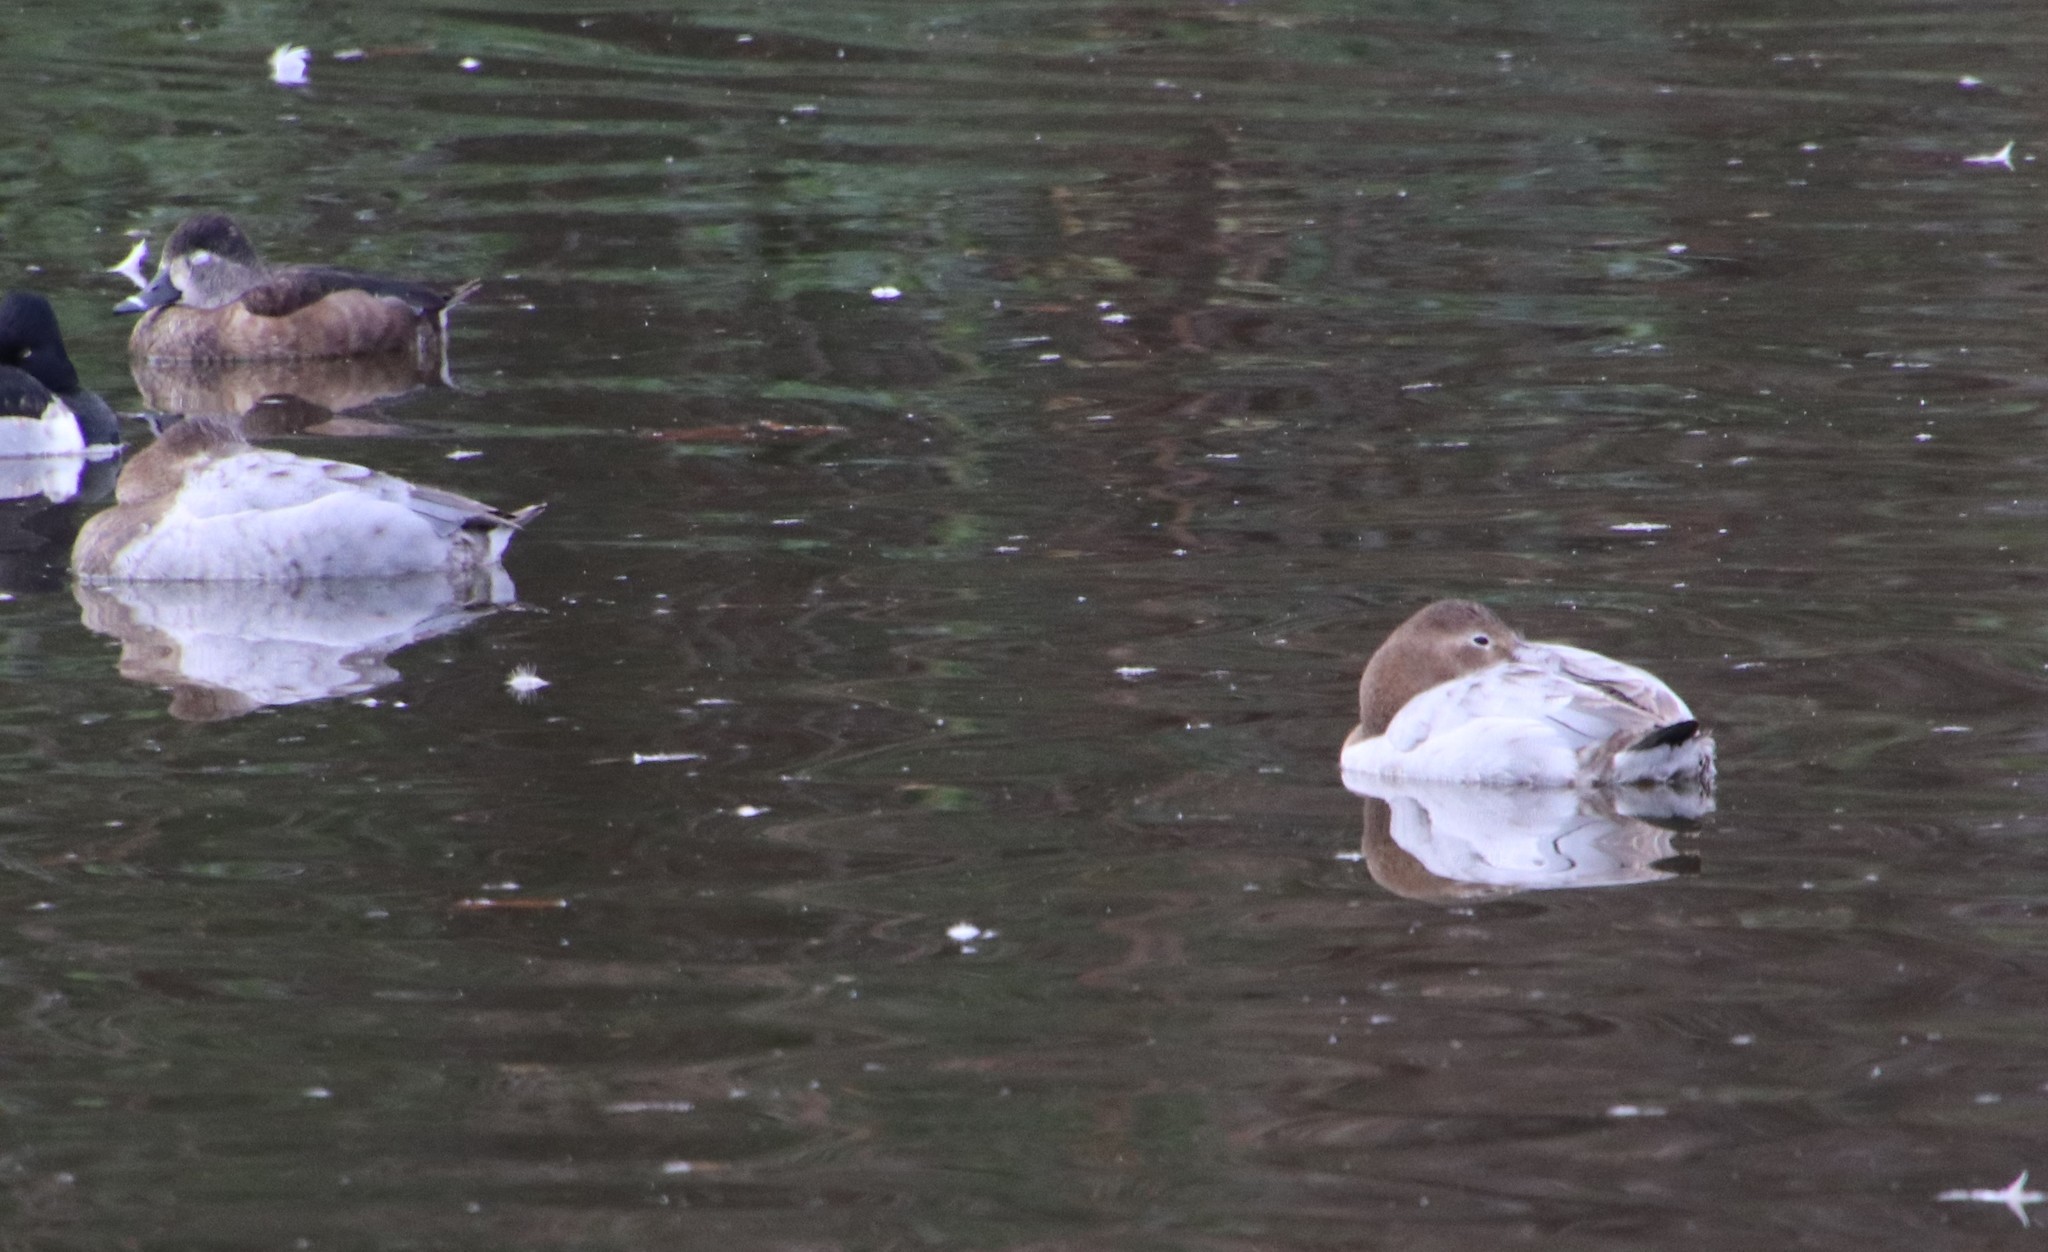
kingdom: Animalia
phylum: Chordata
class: Aves
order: Anseriformes
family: Anatidae
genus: Aythya
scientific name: Aythya valisineria
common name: Canvasback
